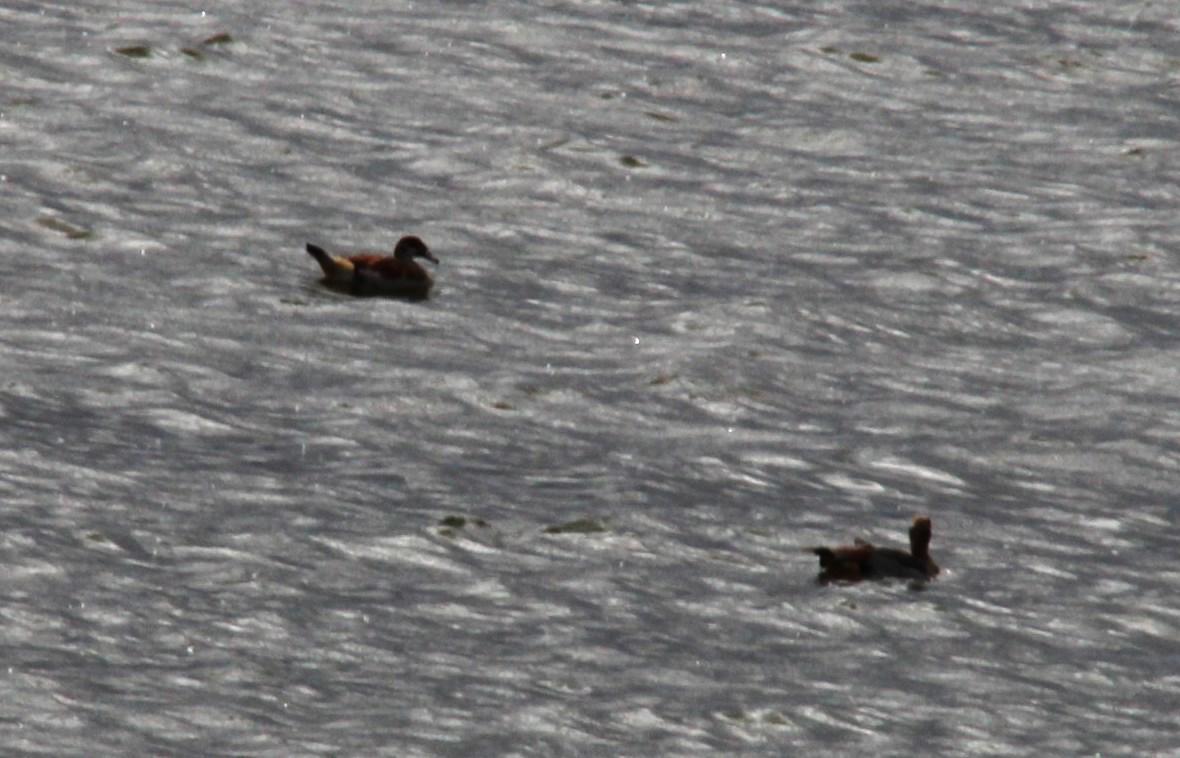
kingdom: Animalia
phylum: Chordata
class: Aves
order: Anseriformes
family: Anatidae
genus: Alopochen
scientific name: Alopochen aegyptiaca
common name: Egyptian goose
